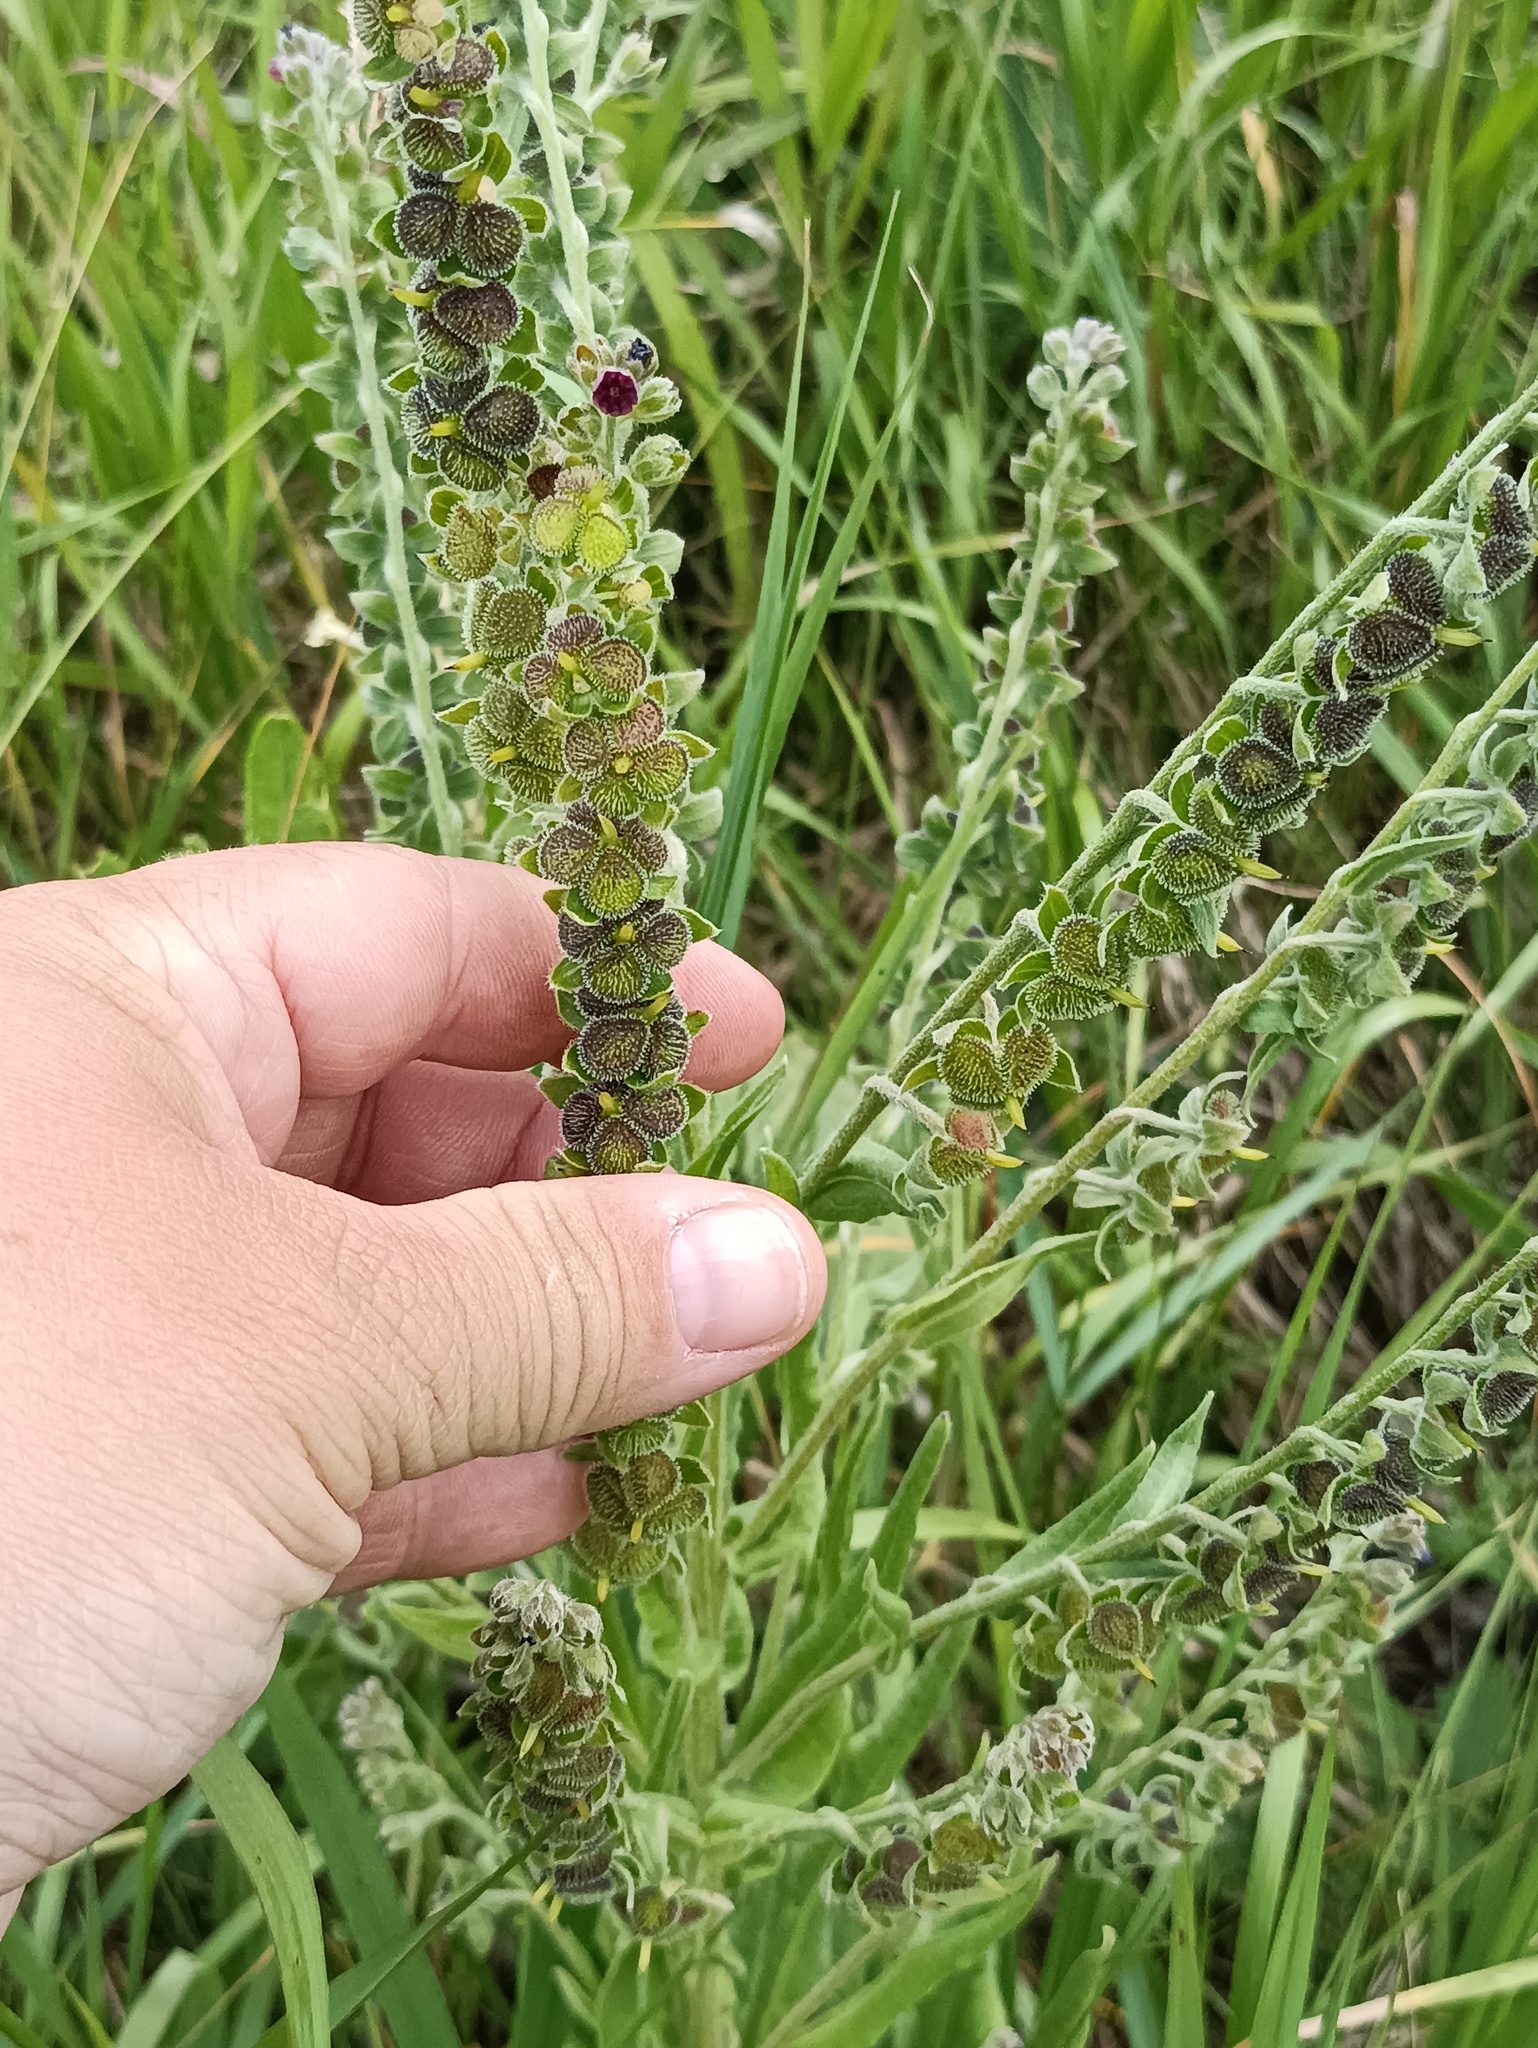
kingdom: Plantae
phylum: Tracheophyta
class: Magnoliopsida
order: Boraginales
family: Boraginaceae
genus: Cynoglossum
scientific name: Cynoglossum officinale
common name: Hound's-tongue
